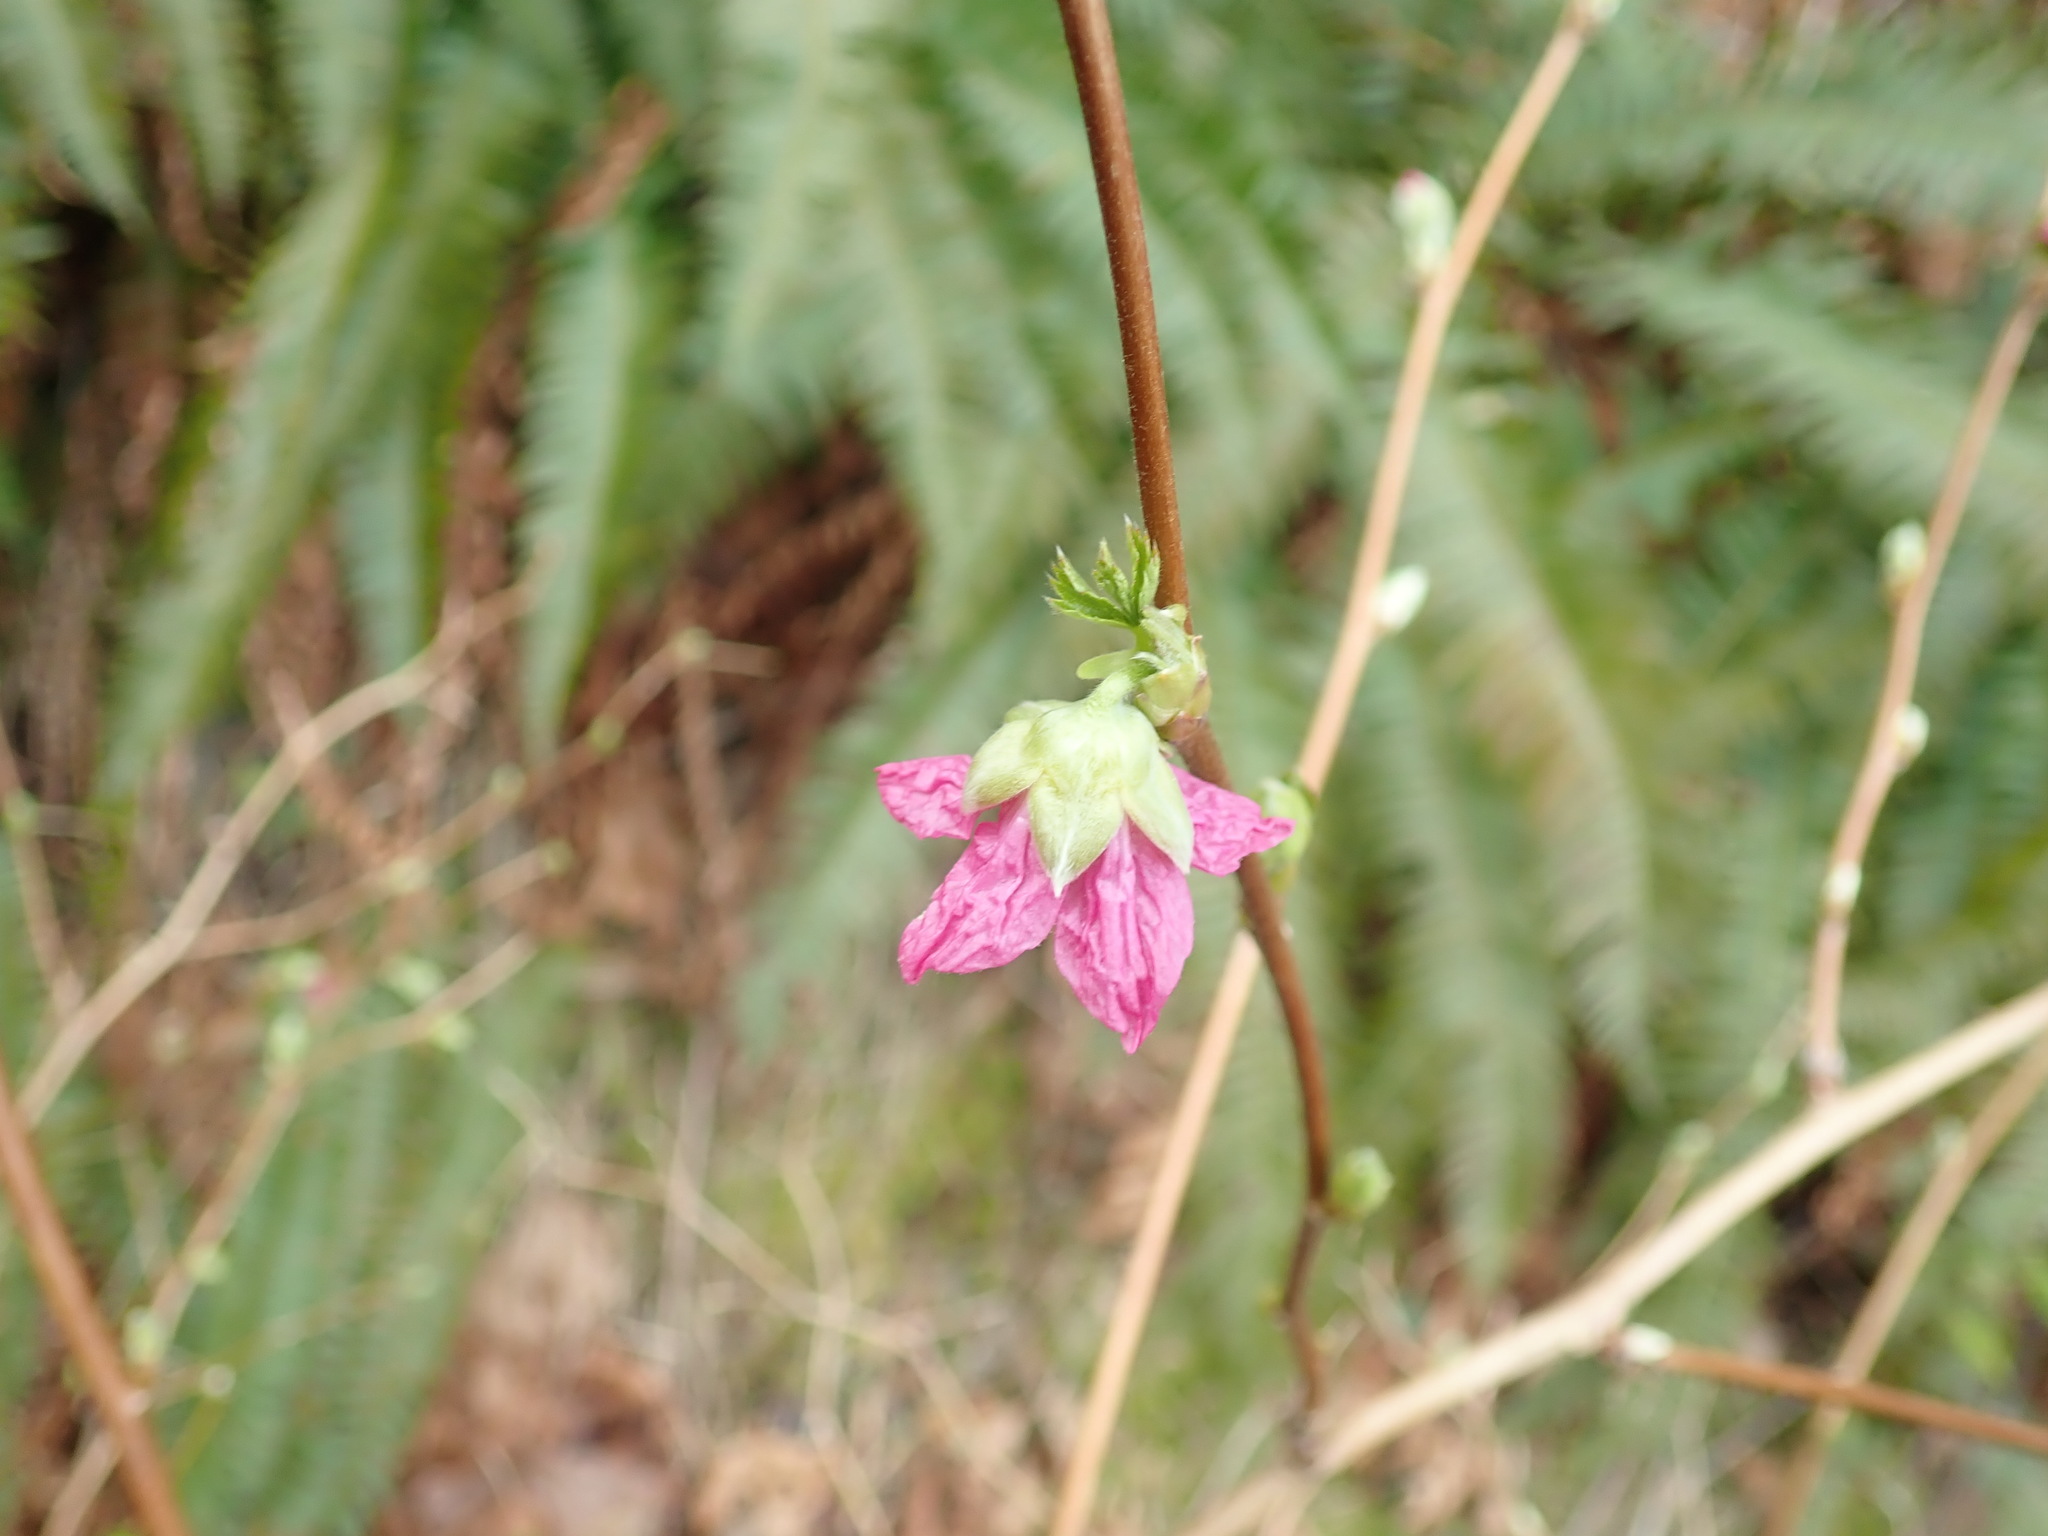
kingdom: Plantae
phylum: Tracheophyta
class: Magnoliopsida
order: Rosales
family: Rosaceae
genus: Rubus
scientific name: Rubus spectabilis
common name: Salmonberry
